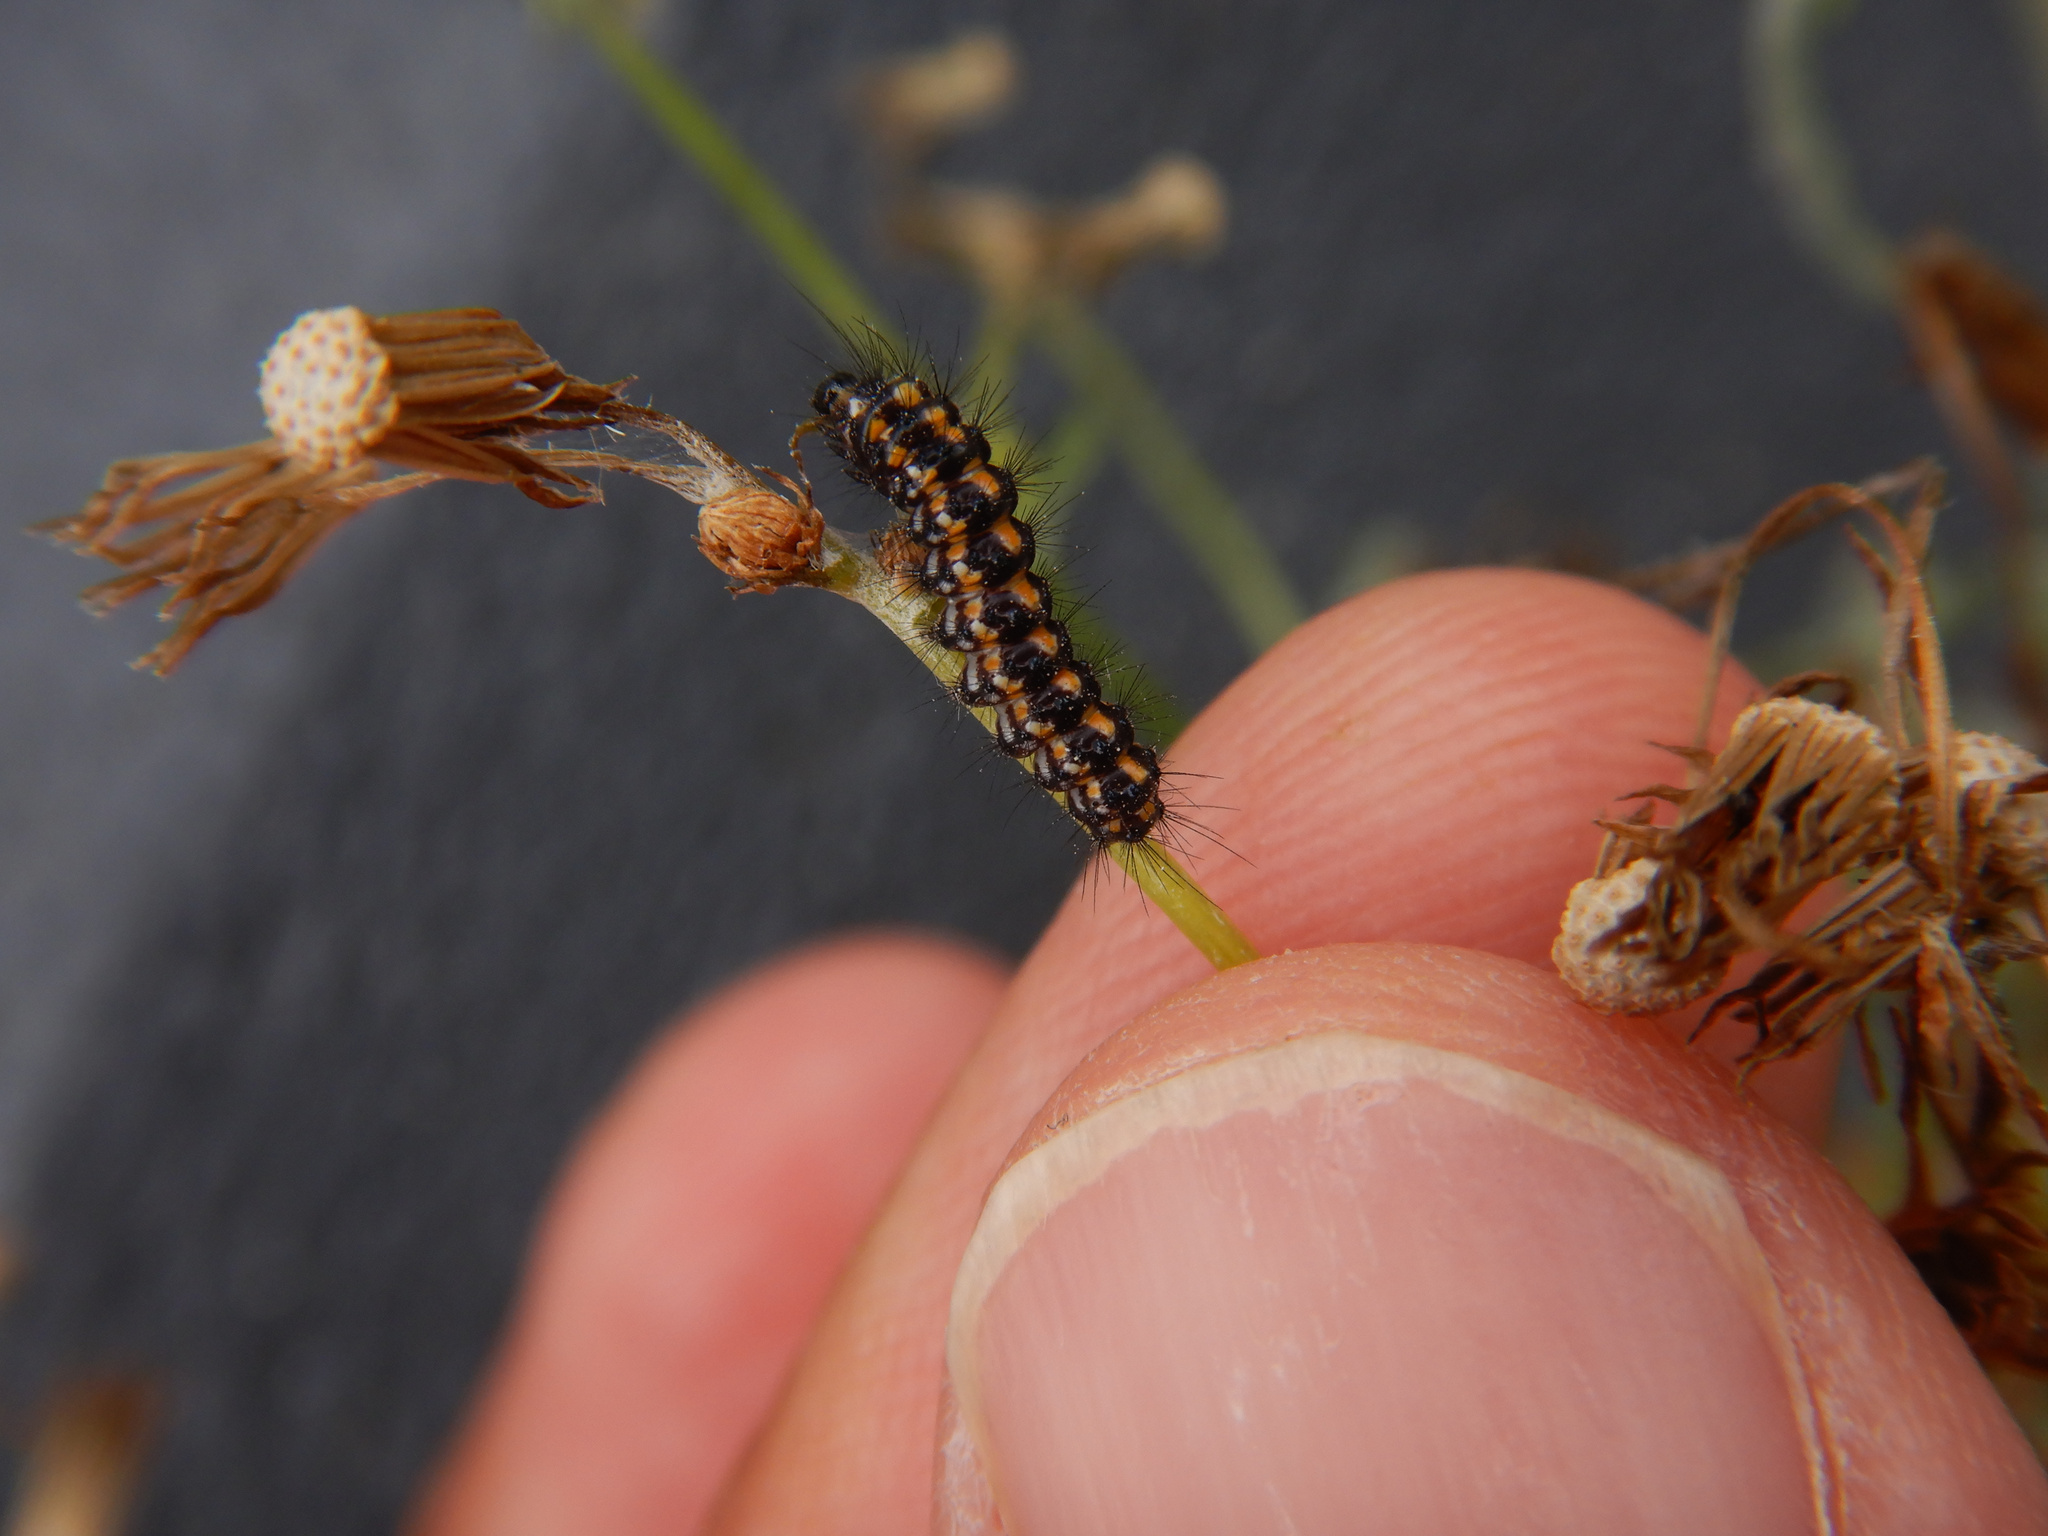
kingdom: Animalia
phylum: Arthropoda
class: Insecta
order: Lepidoptera
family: Erebidae
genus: Nyctemera
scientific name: Nyctemera annulatum
